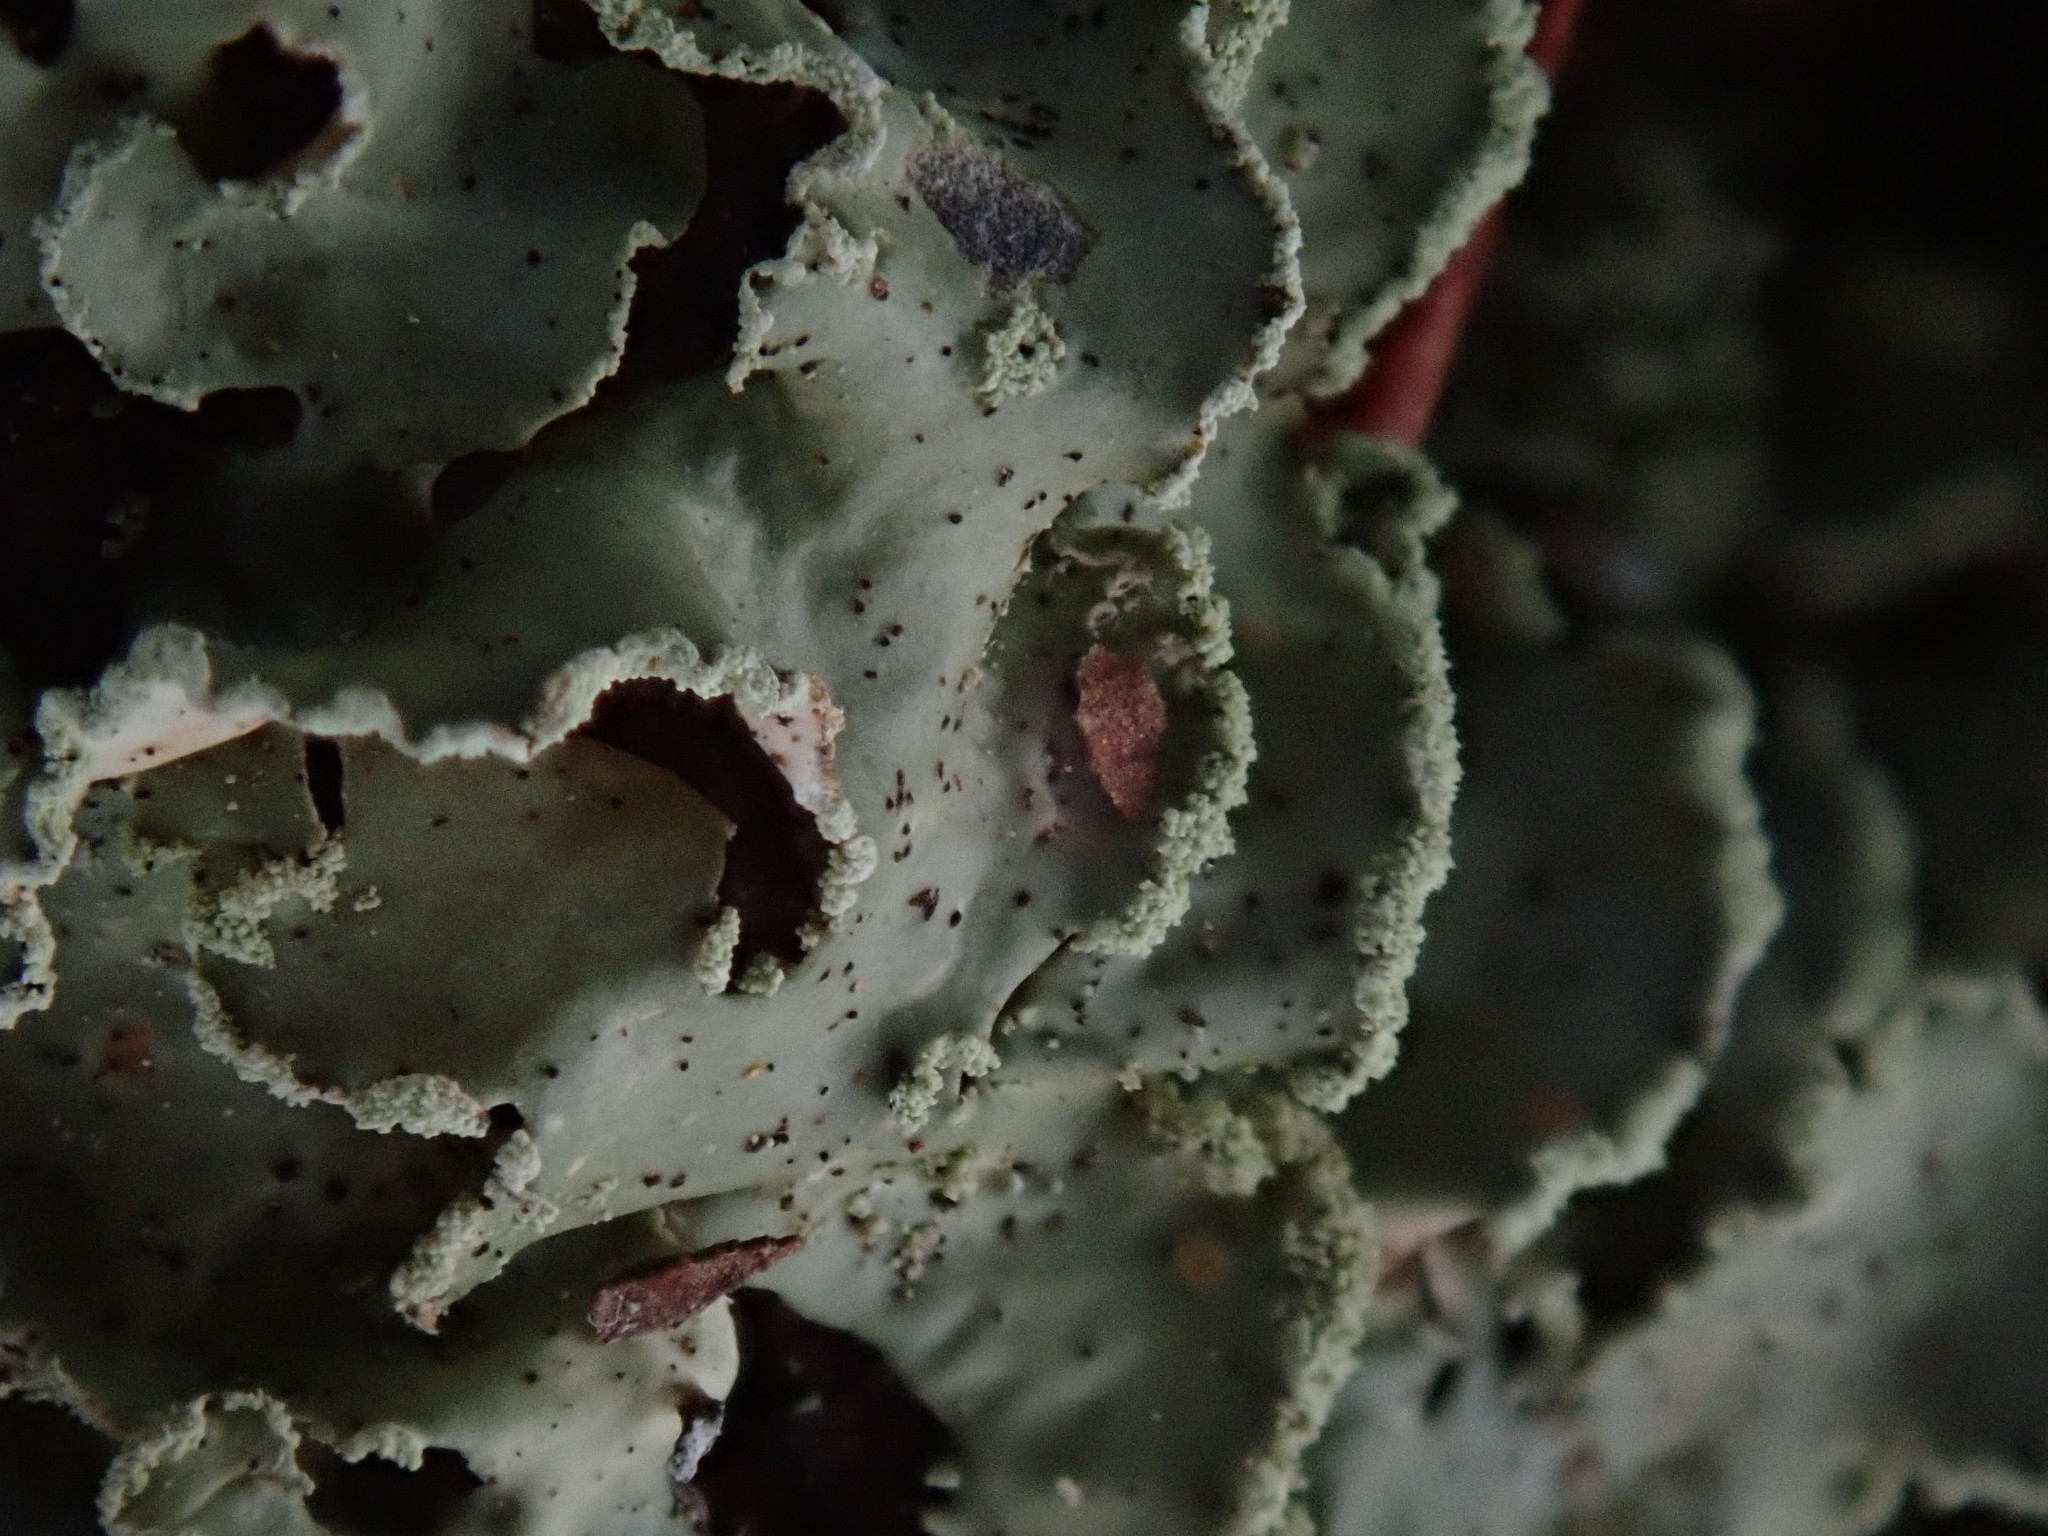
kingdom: Fungi
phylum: Ascomycota
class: Lecanoromycetes
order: Lecanorales
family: Parmeliaceae
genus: Usnocetraria
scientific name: Usnocetraria oakesiana
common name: Yellow ribbon lichen
